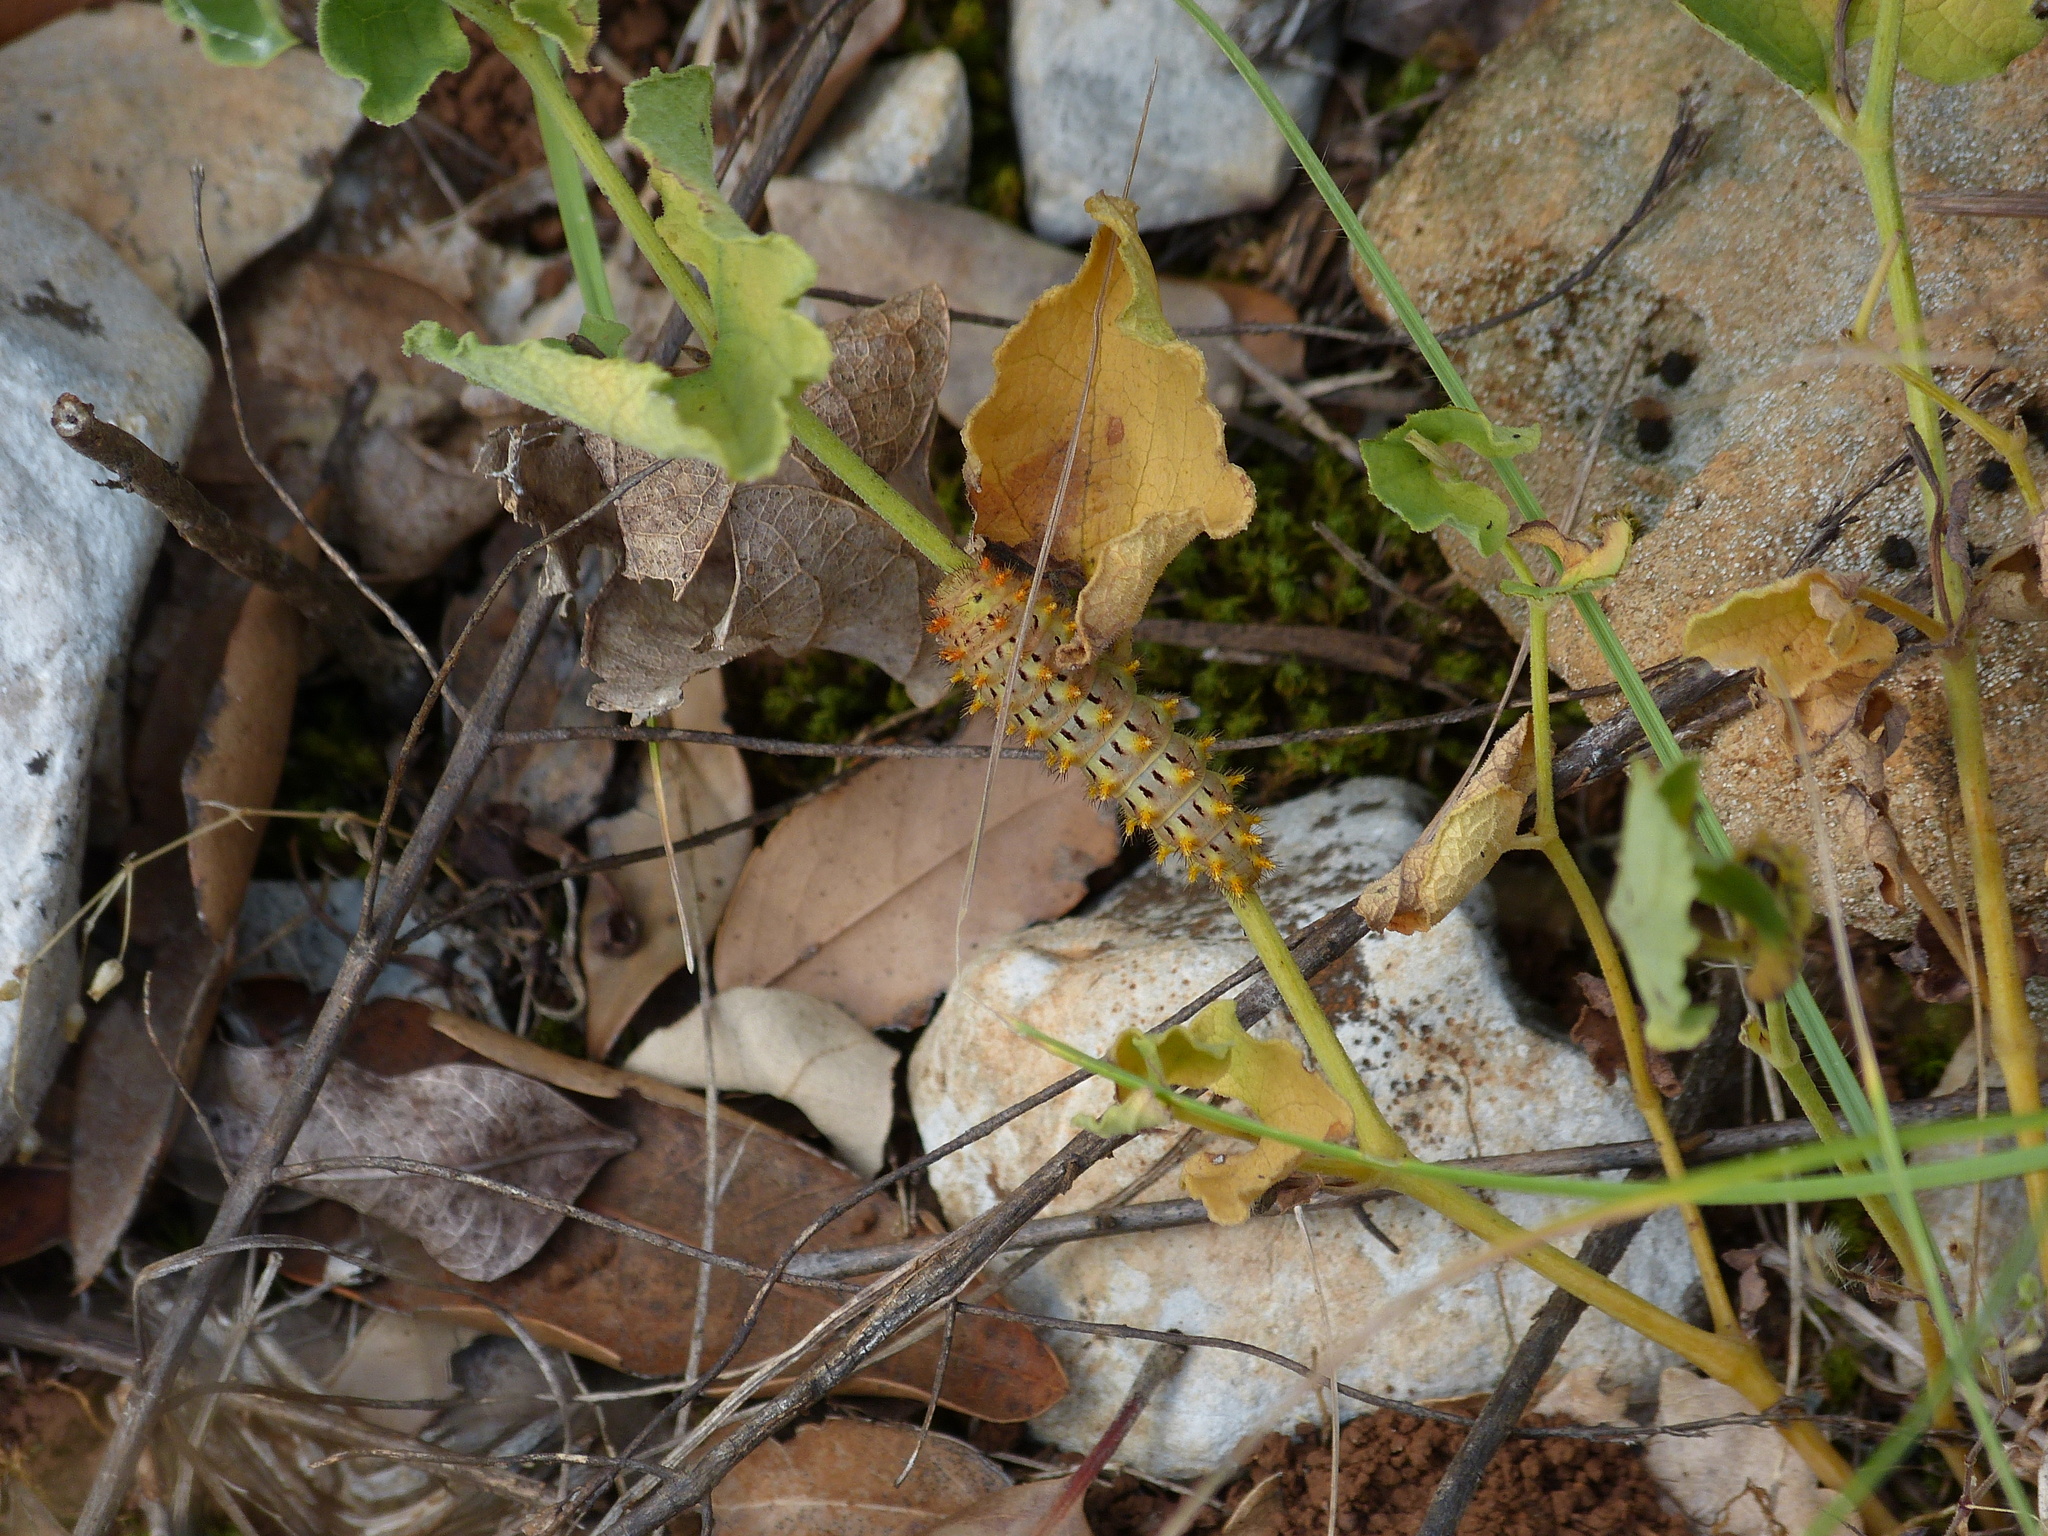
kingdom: Animalia
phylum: Arthropoda
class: Insecta
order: Lepidoptera
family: Papilionidae
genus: Zerynthia
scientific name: Zerynthia rumina
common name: Spanish festoon
